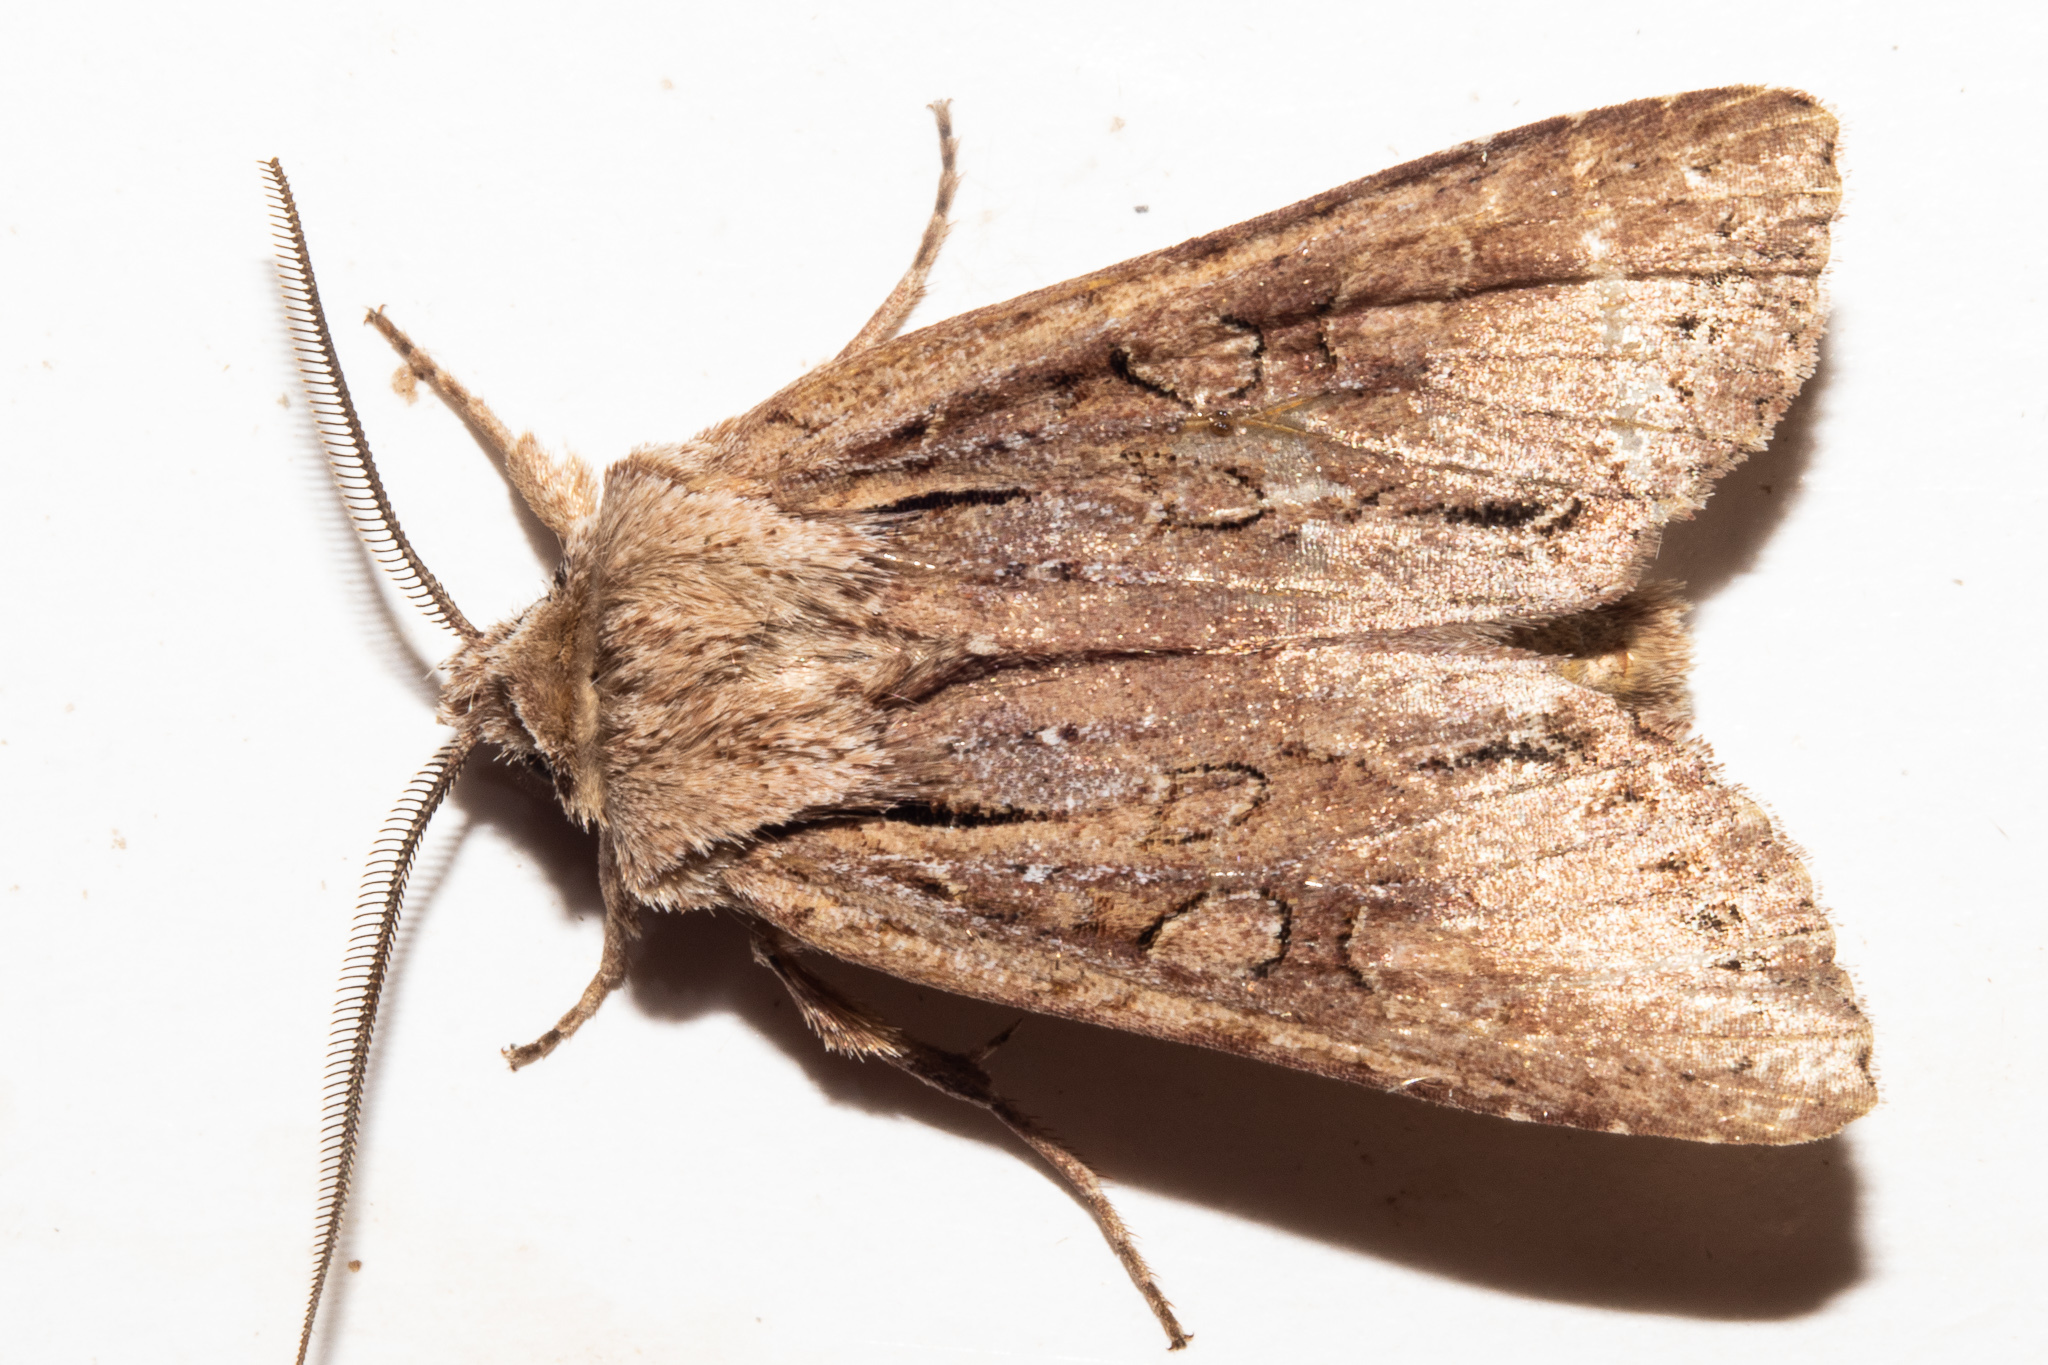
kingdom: Animalia
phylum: Arthropoda
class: Insecta
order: Lepidoptera
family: Noctuidae
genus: Ichneutica
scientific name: Ichneutica
